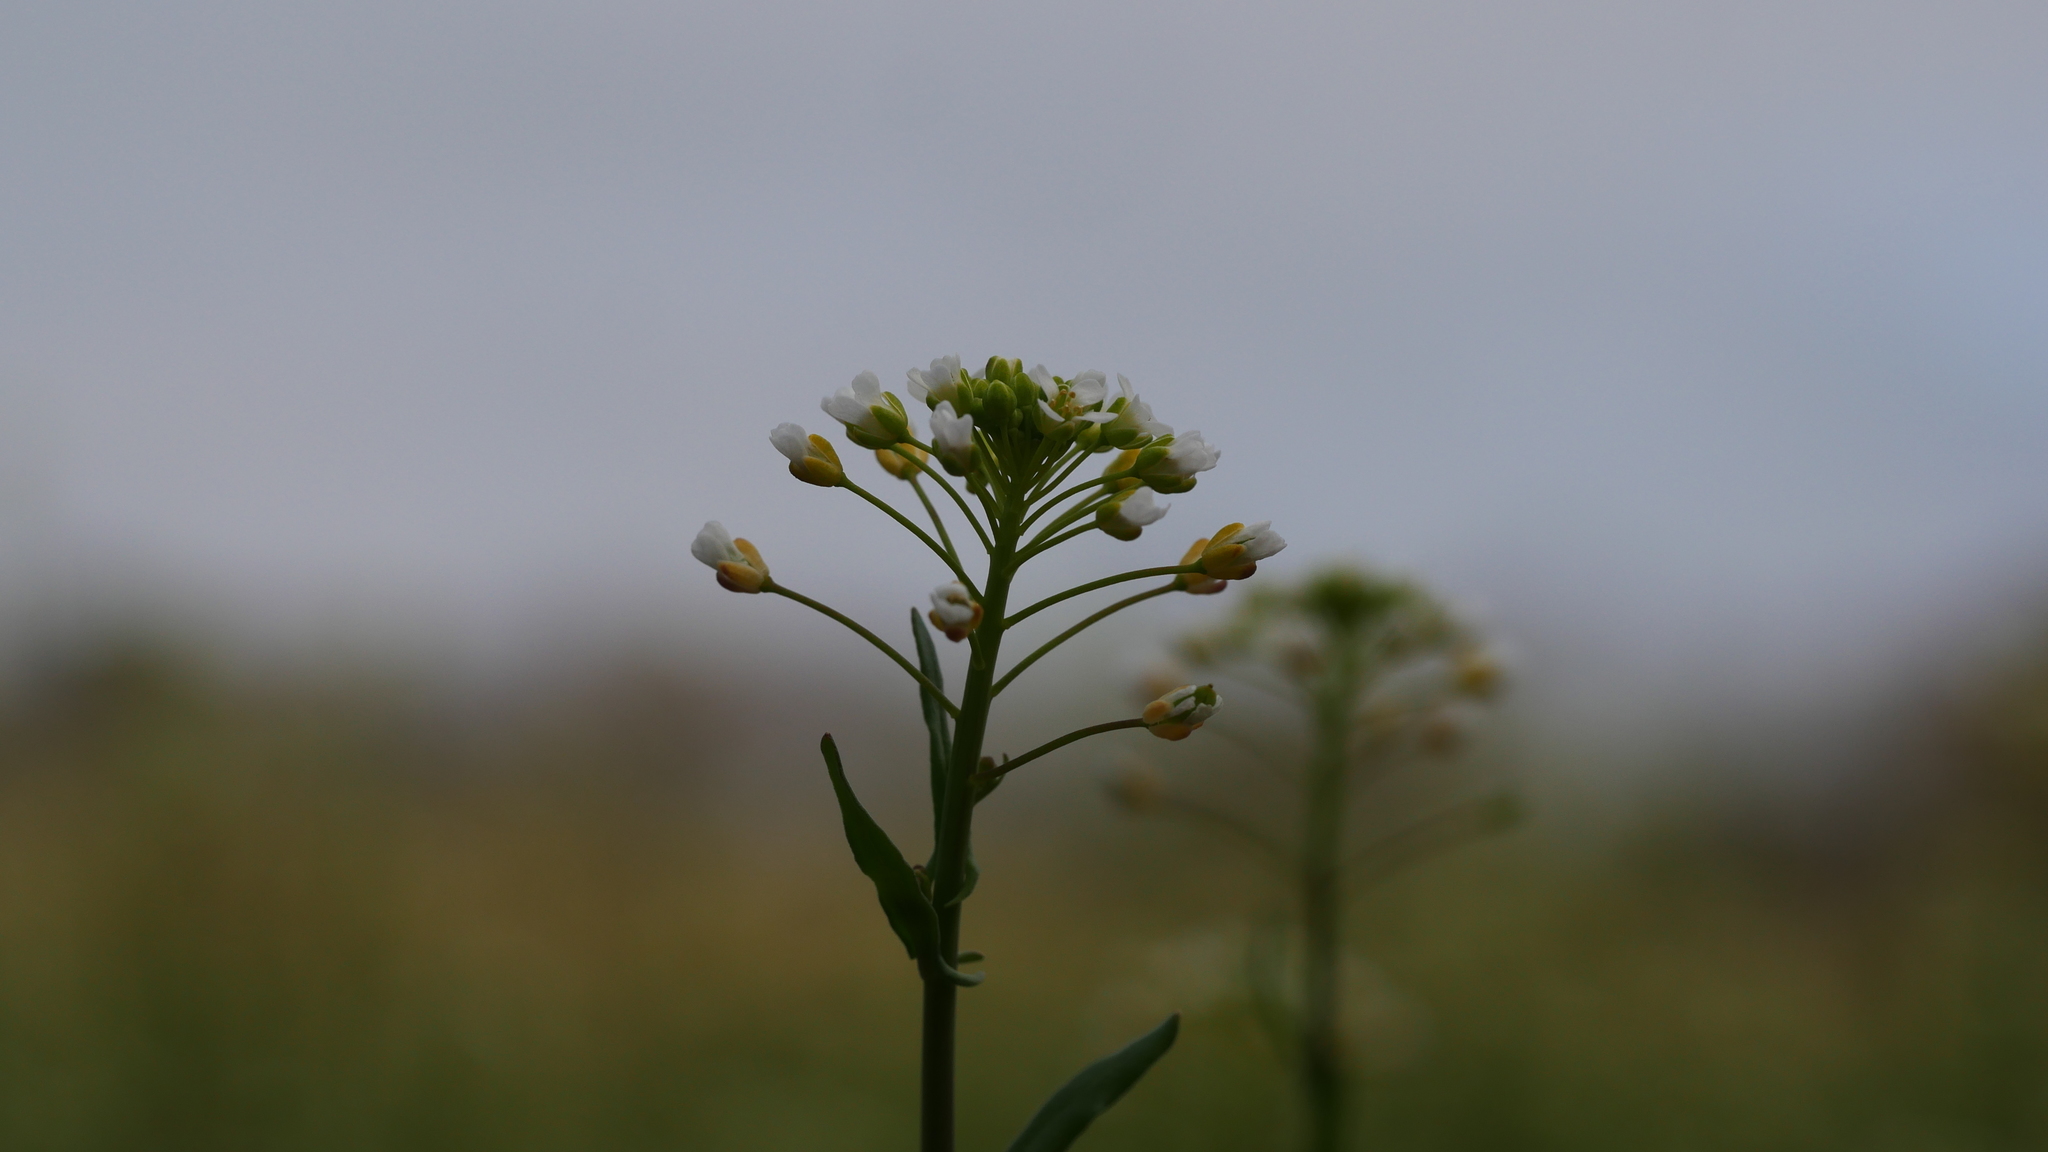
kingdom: Plantae
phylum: Tracheophyta
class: Magnoliopsida
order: Brassicales
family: Brassicaceae
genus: Mummenhoffia
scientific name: Mummenhoffia alliacea
